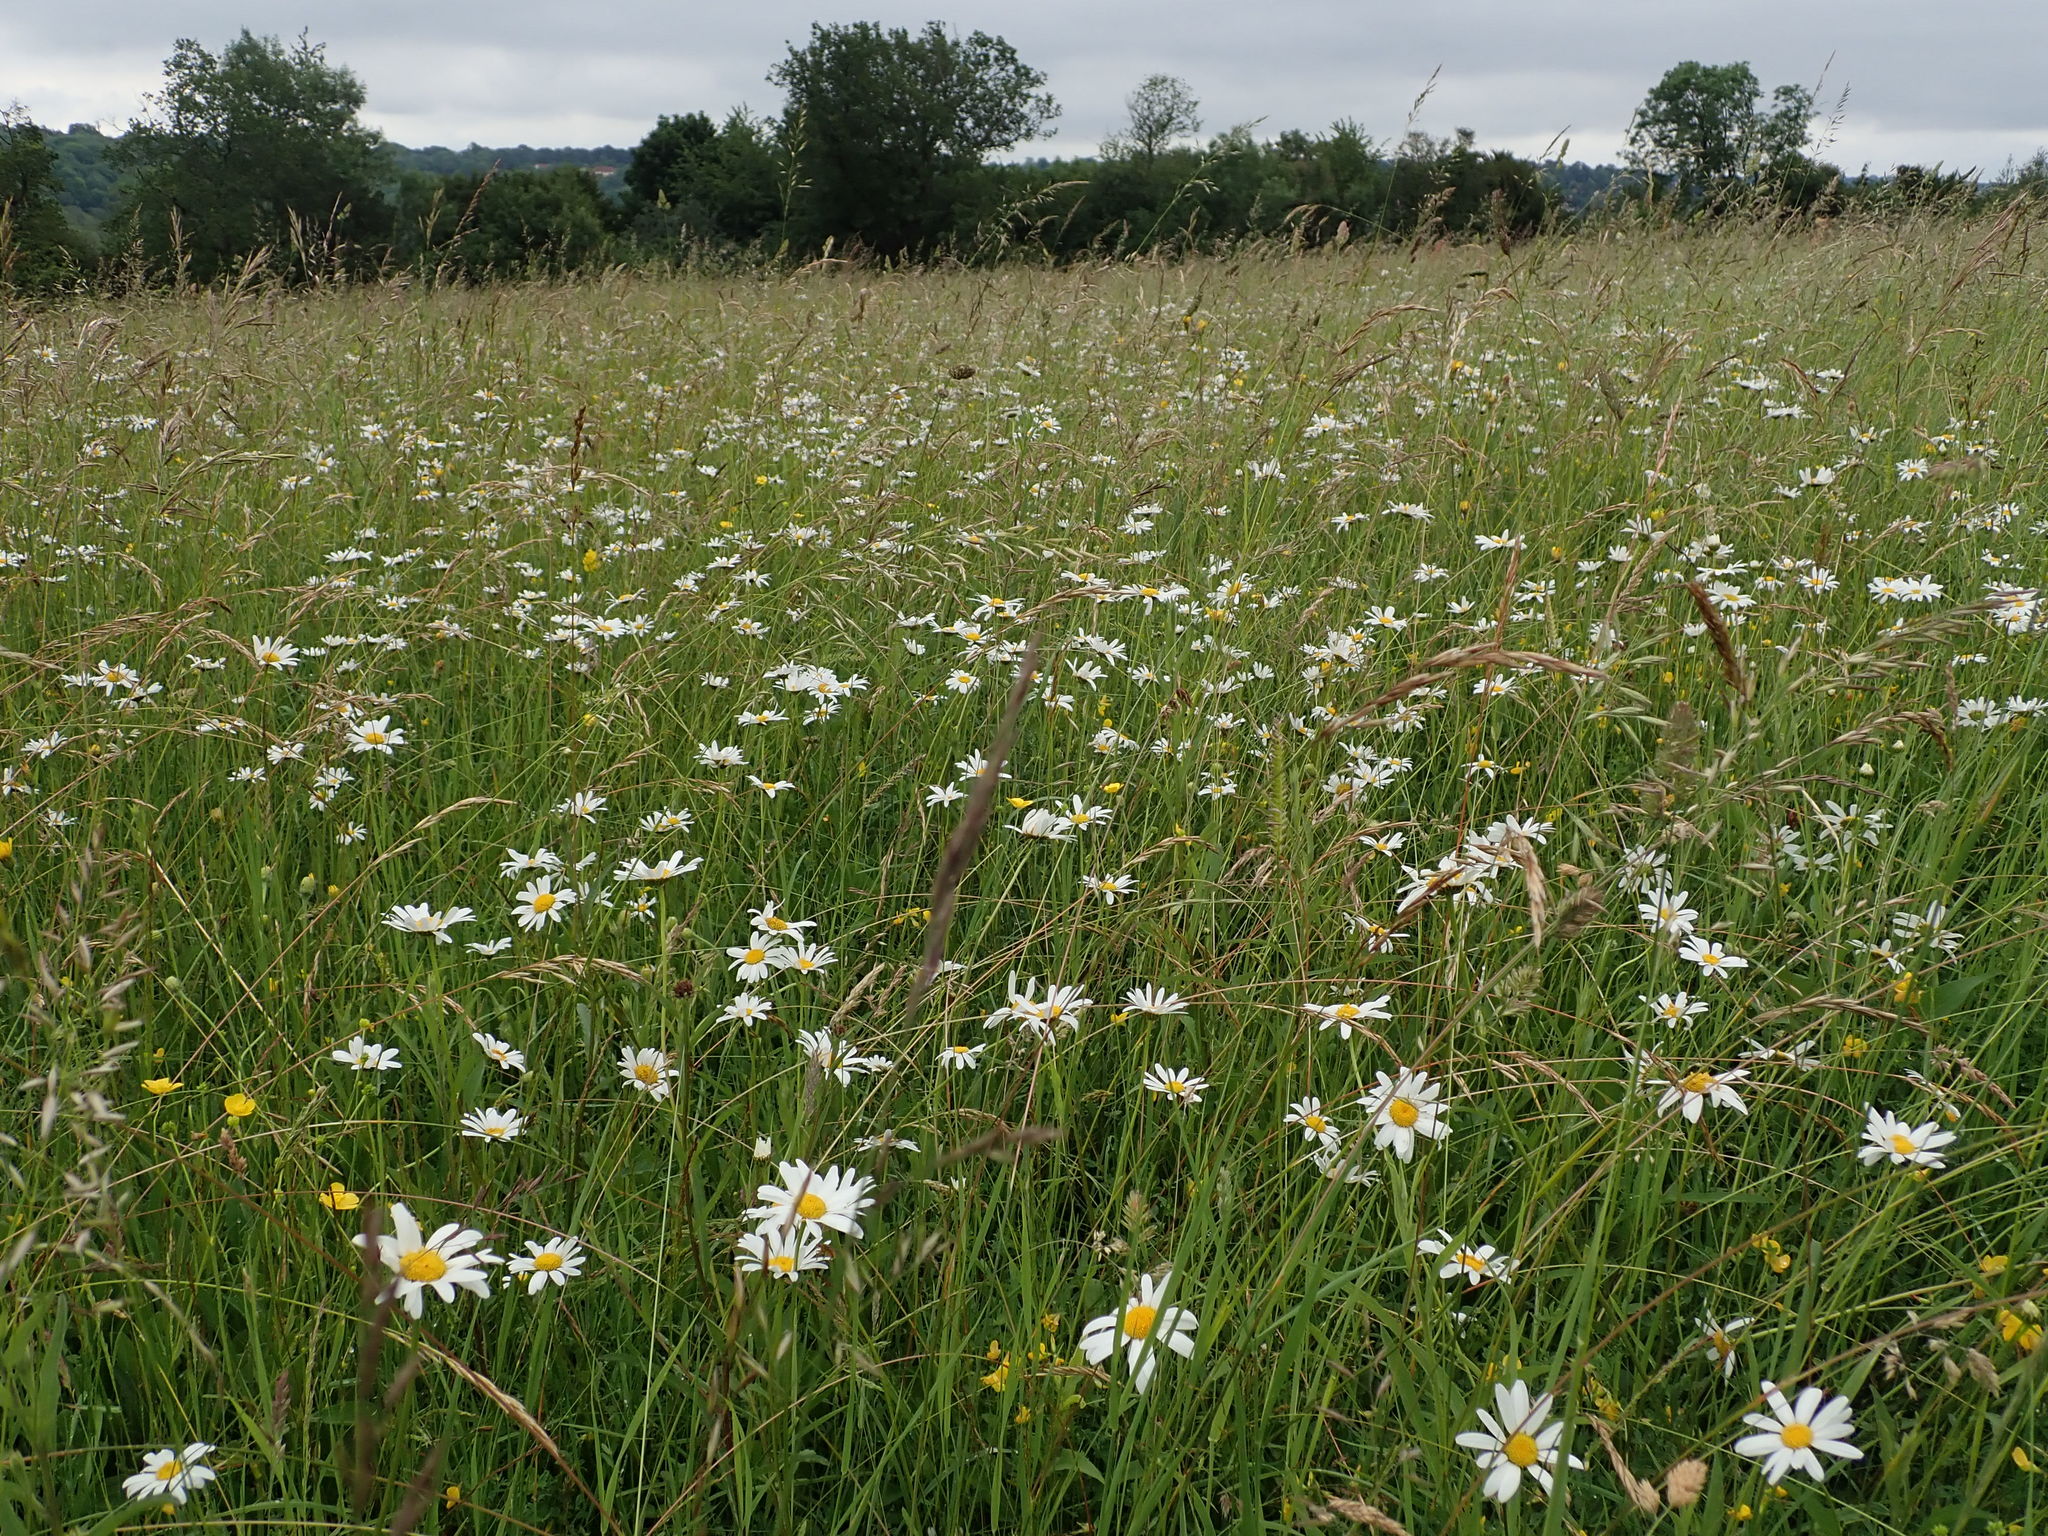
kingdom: Plantae
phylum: Tracheophyta
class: Magnoliopsida
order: Asterales
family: Asteraceae
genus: Leucanthemum
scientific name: Leucanthemum vulgare
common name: Oxeye daisy
